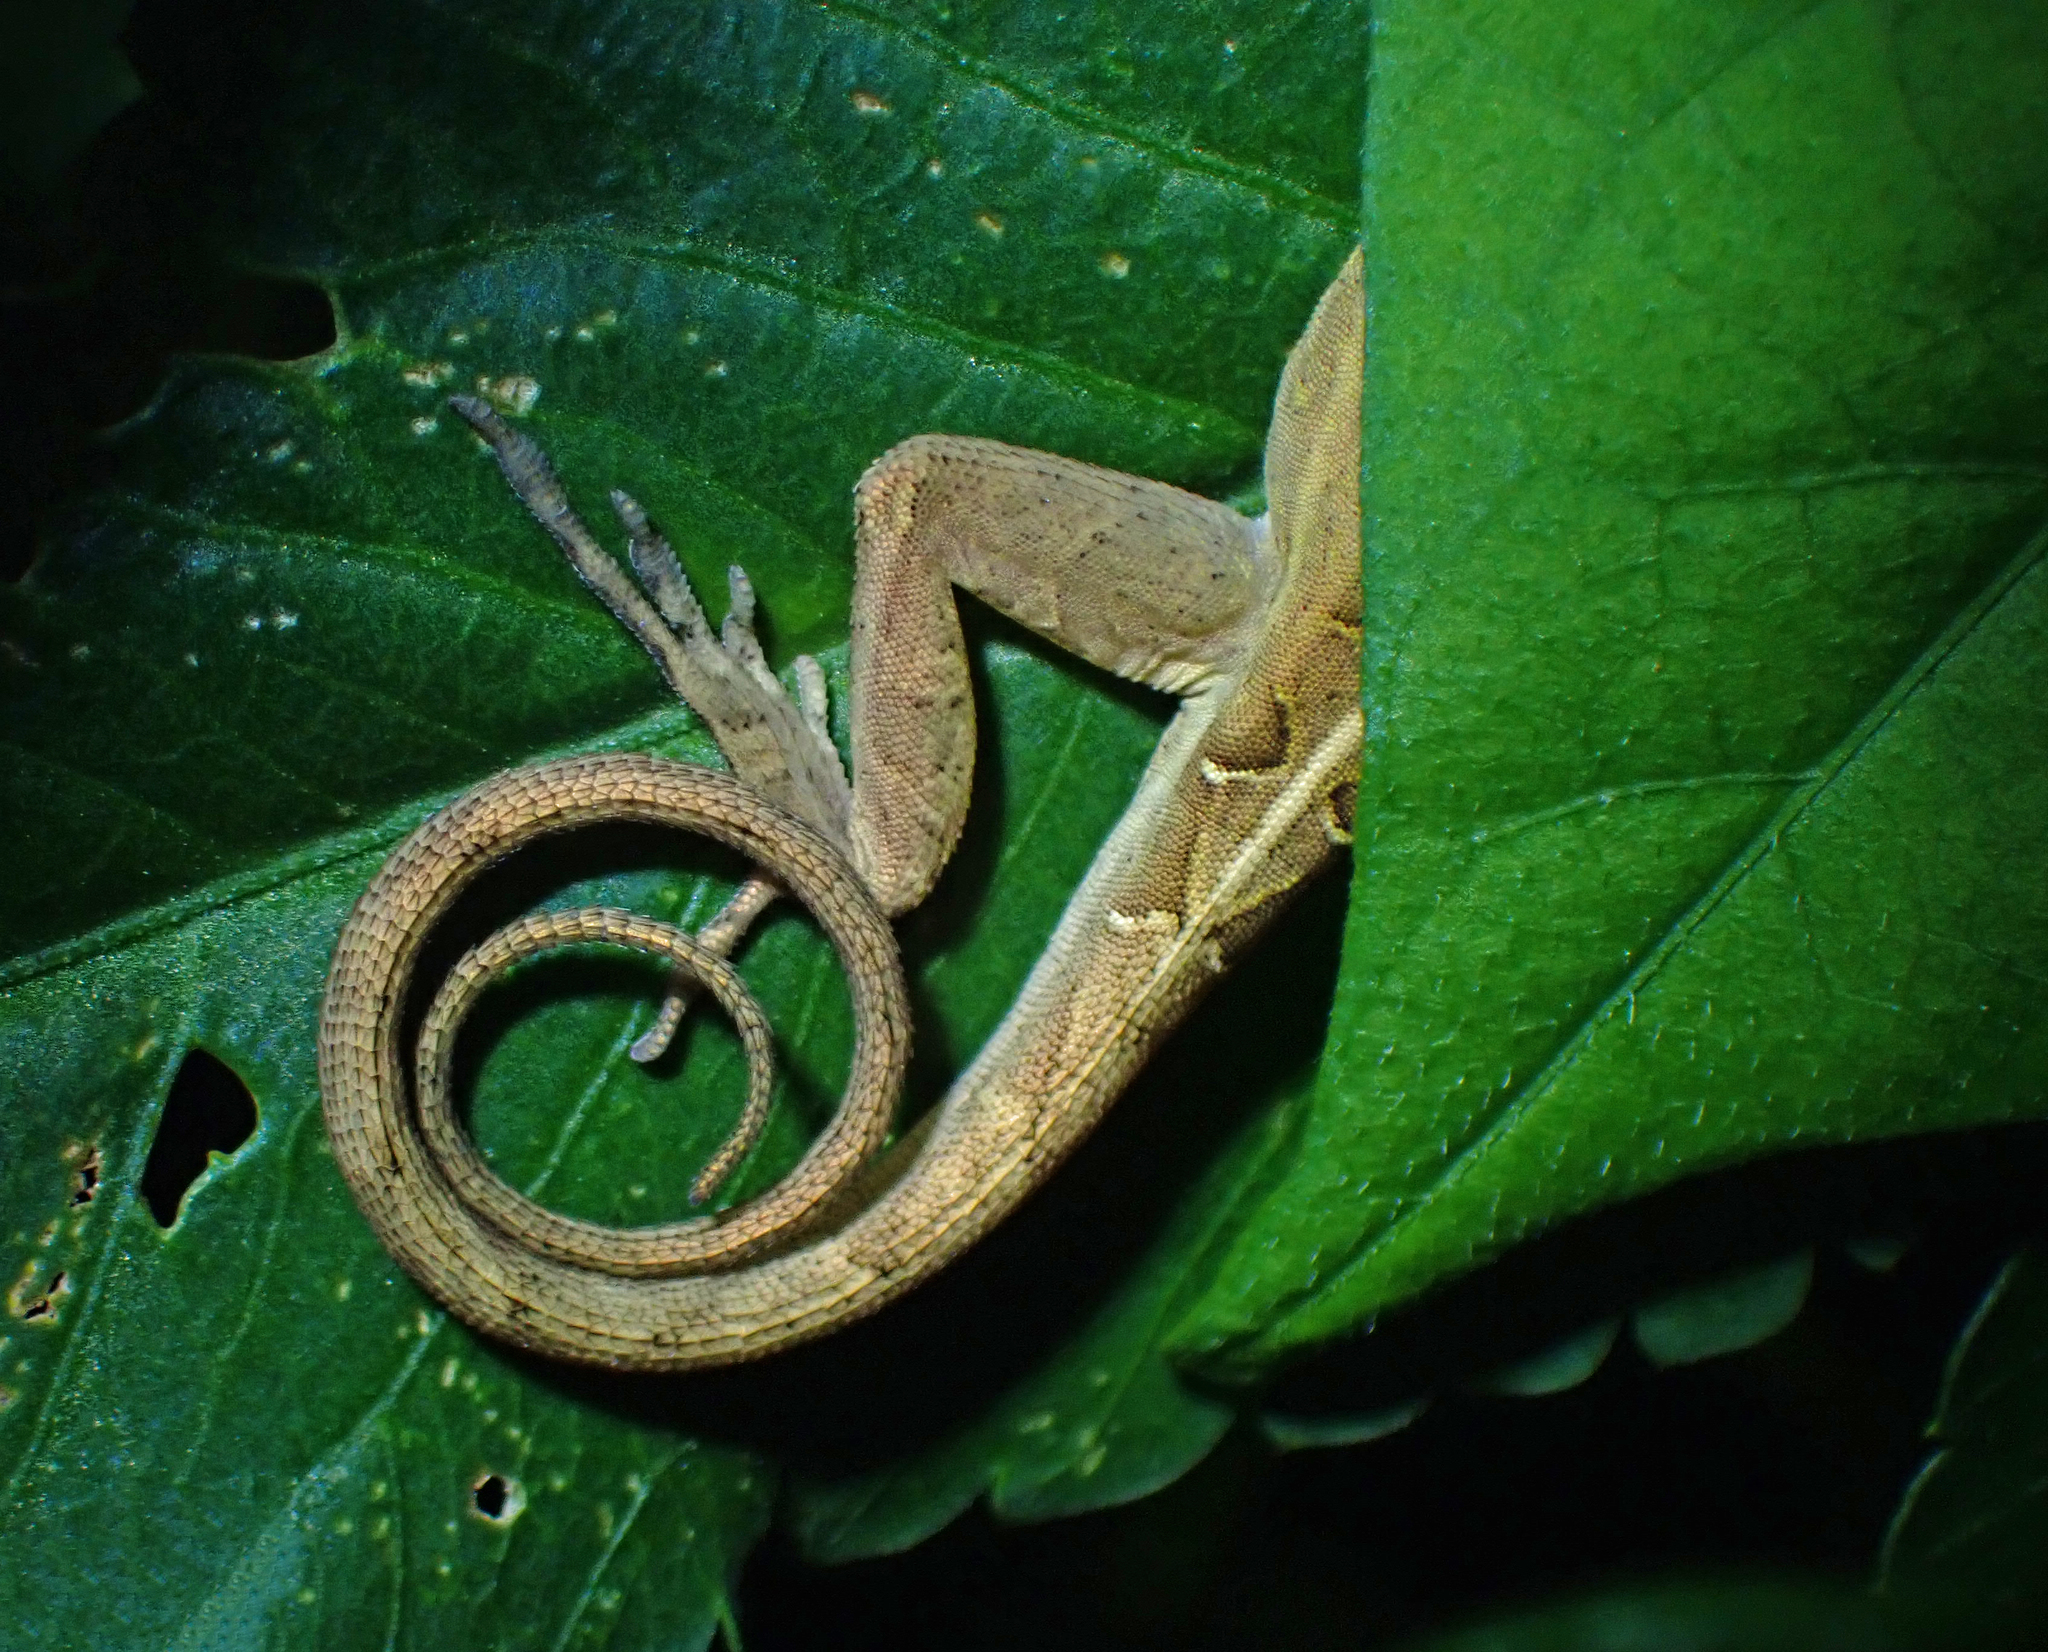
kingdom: Animalia
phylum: Chordata
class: Squamata
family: Dactyloidae
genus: Anolis
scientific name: Anolis sagrei
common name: Brown anole
